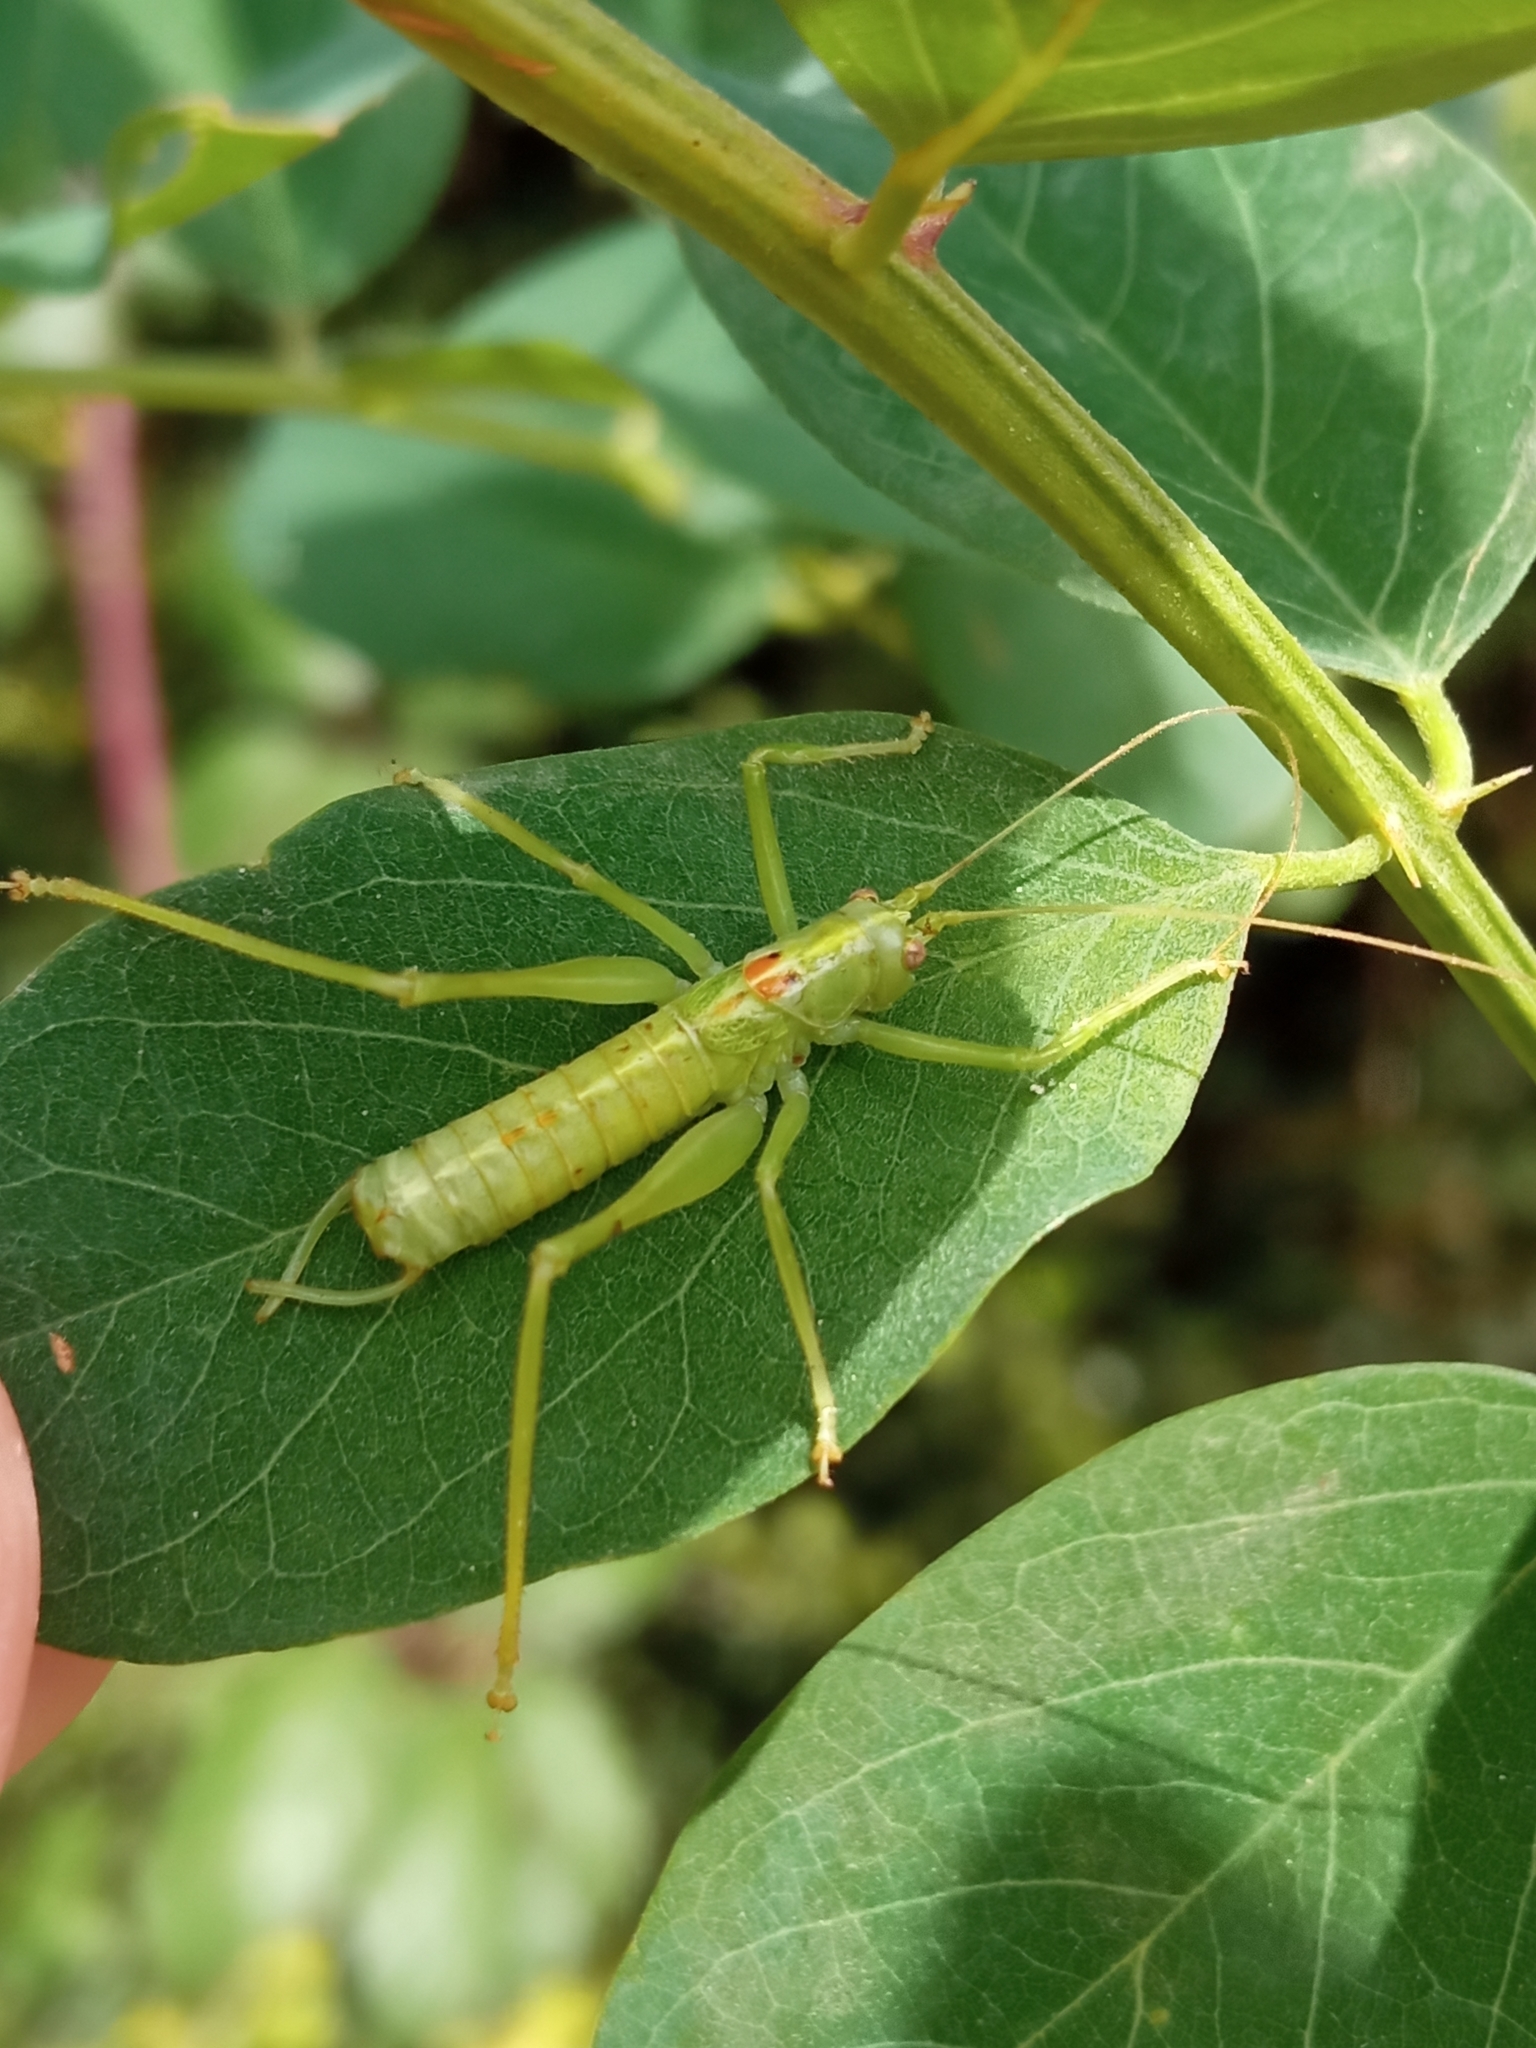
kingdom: Animalia
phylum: Arthropoda
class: Insecta
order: Orthoptera
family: Tettigoniidae
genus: Meconema
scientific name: Meconema meridionale
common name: Southern oak bush-cricket
